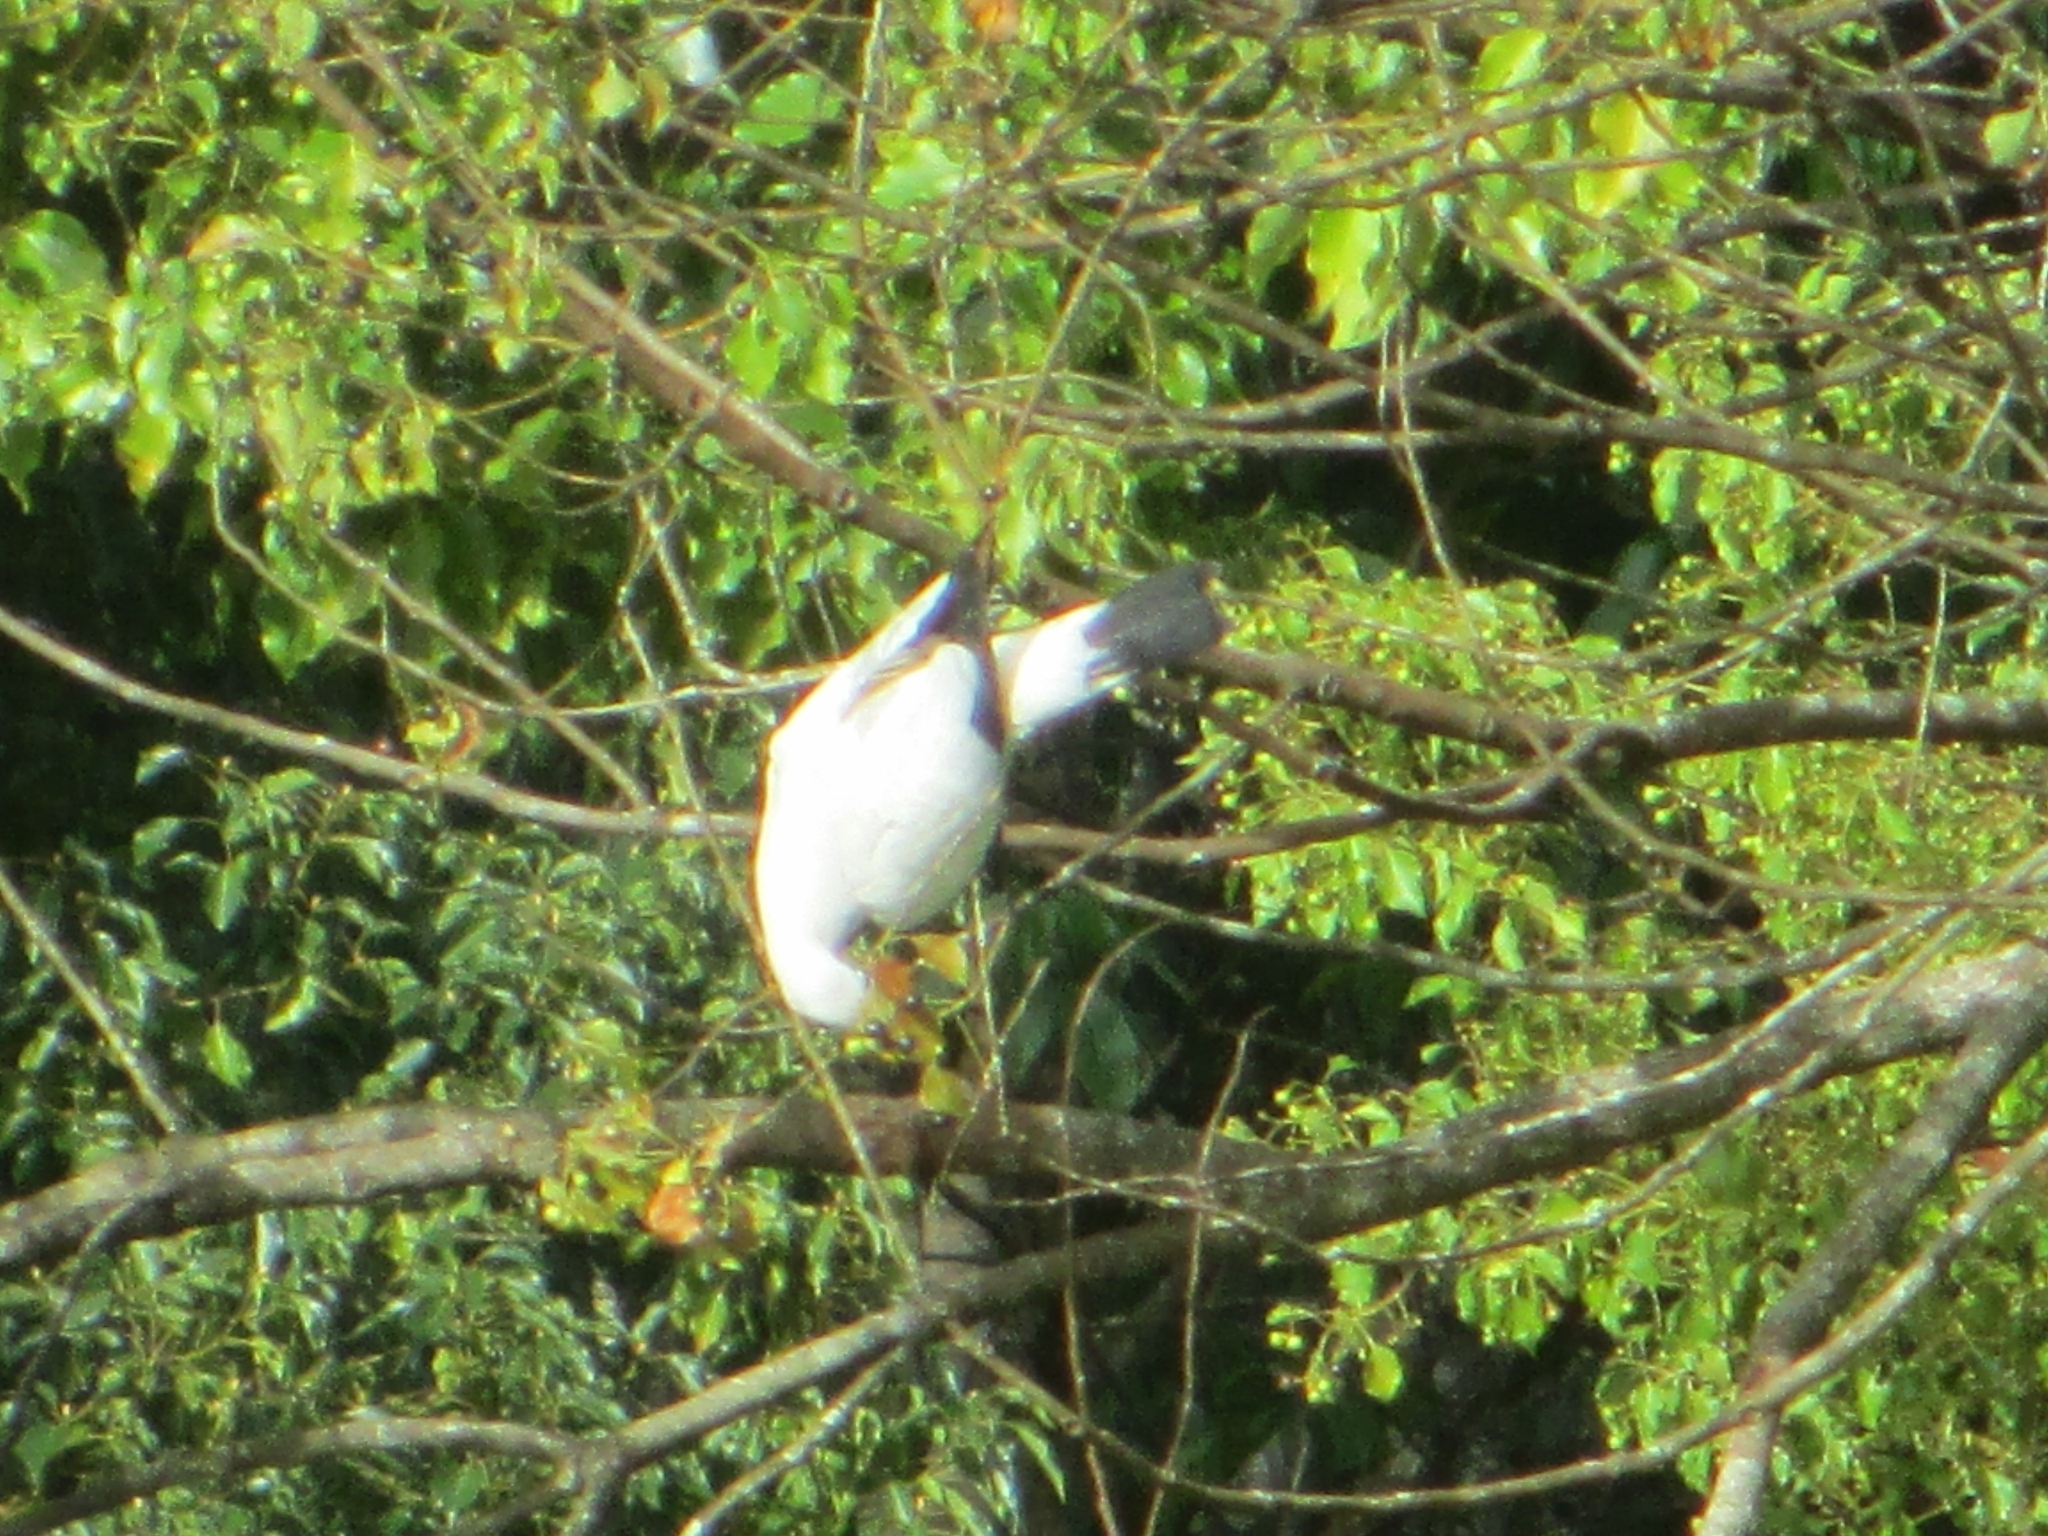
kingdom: Animalia
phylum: Chordata
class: Aves
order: Columbiformes
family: Columbidae
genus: Ducula
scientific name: Ducula spilorrhoa
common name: Torresian imperial pigeon
